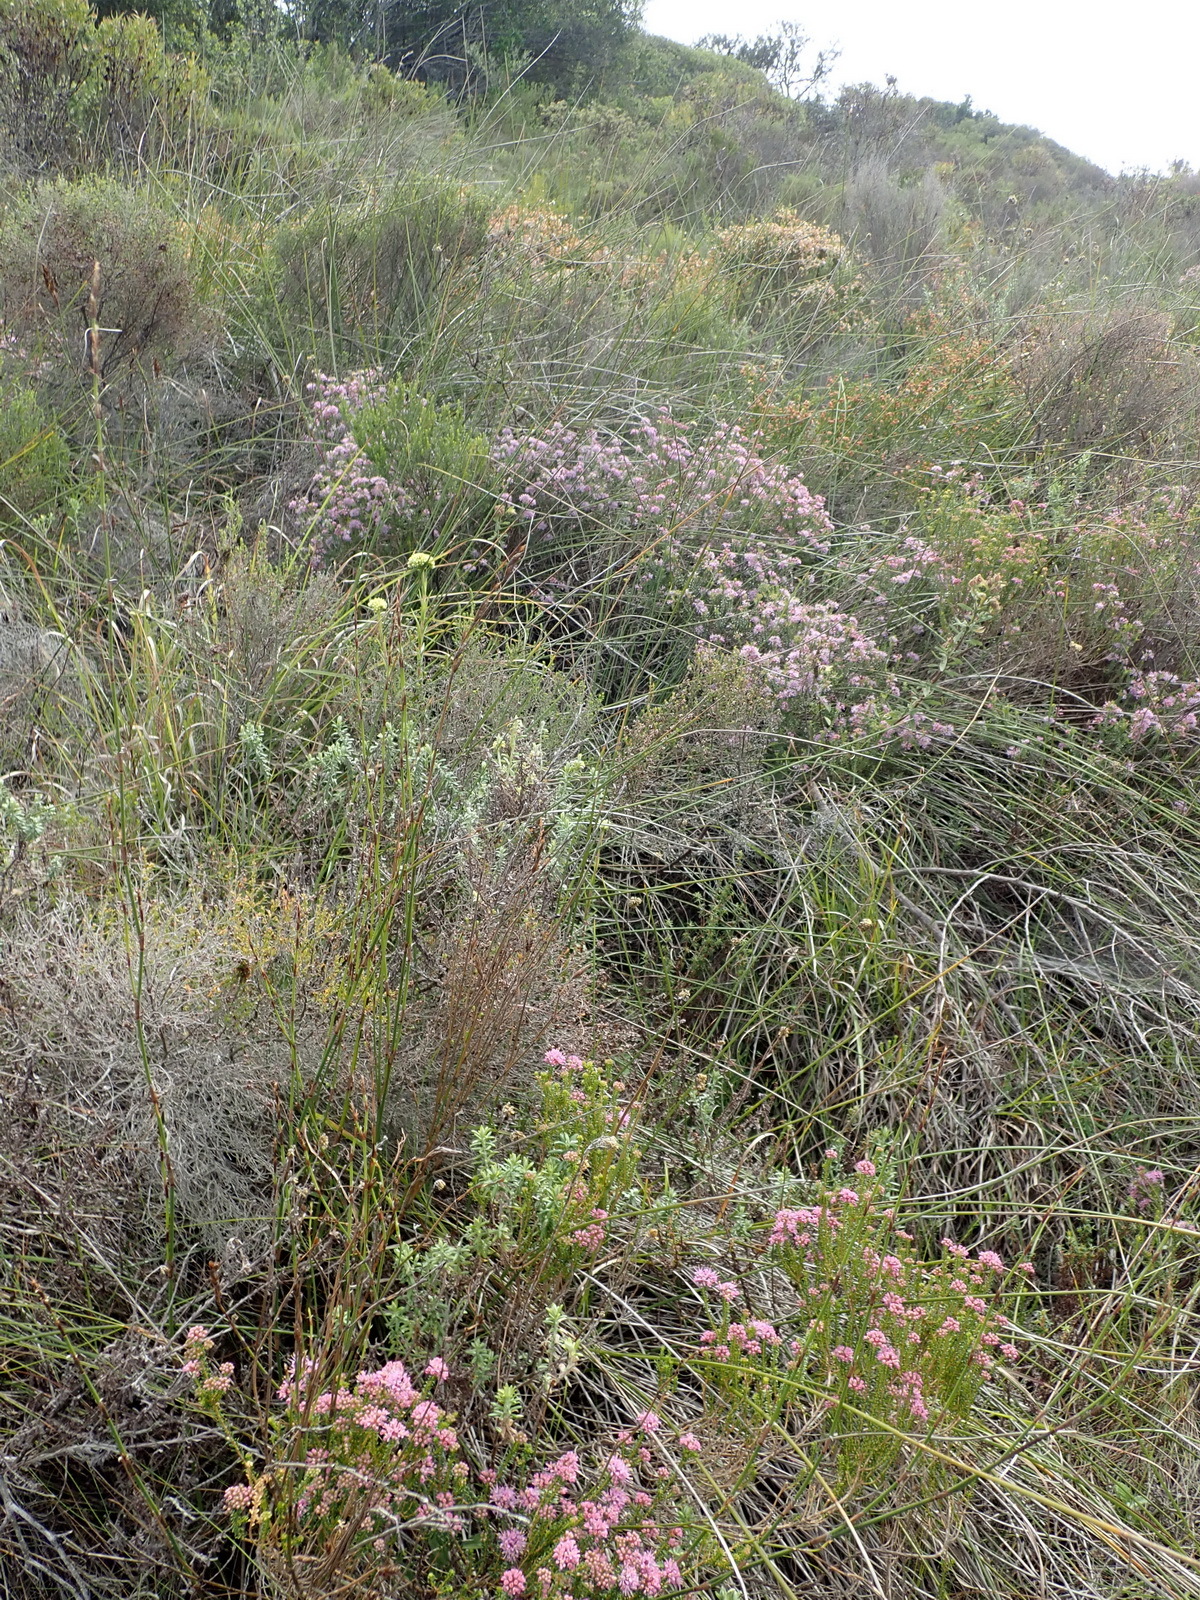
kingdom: Plantae
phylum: Tracheophyta
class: Magnoliopsida
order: Sapindales
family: Rutaceae
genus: Agathosma
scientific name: Agathosma capensis
